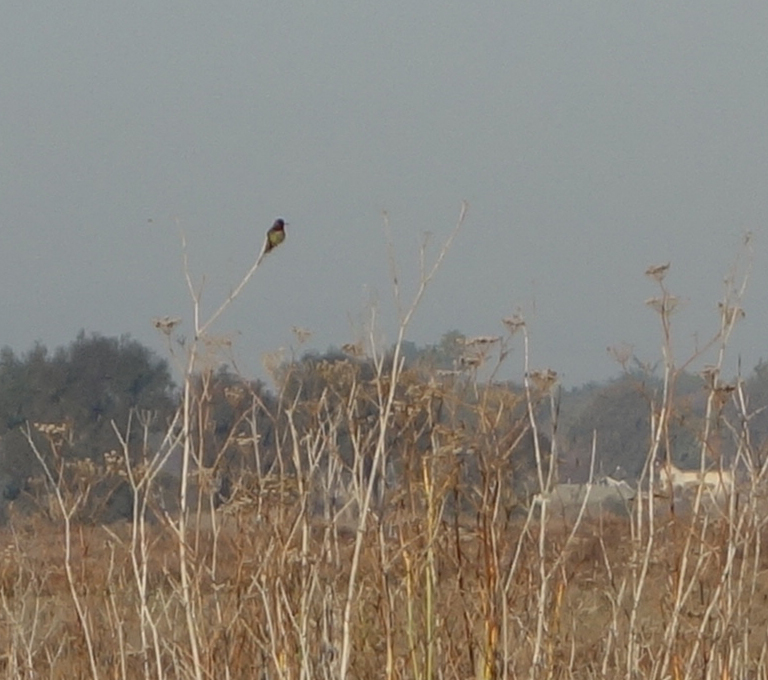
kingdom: Animalia
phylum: Chordata
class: Aves
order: Apodiformes
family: Trochilidae
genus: Calypte
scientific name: Calypte anna
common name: Anna's hummingbird
